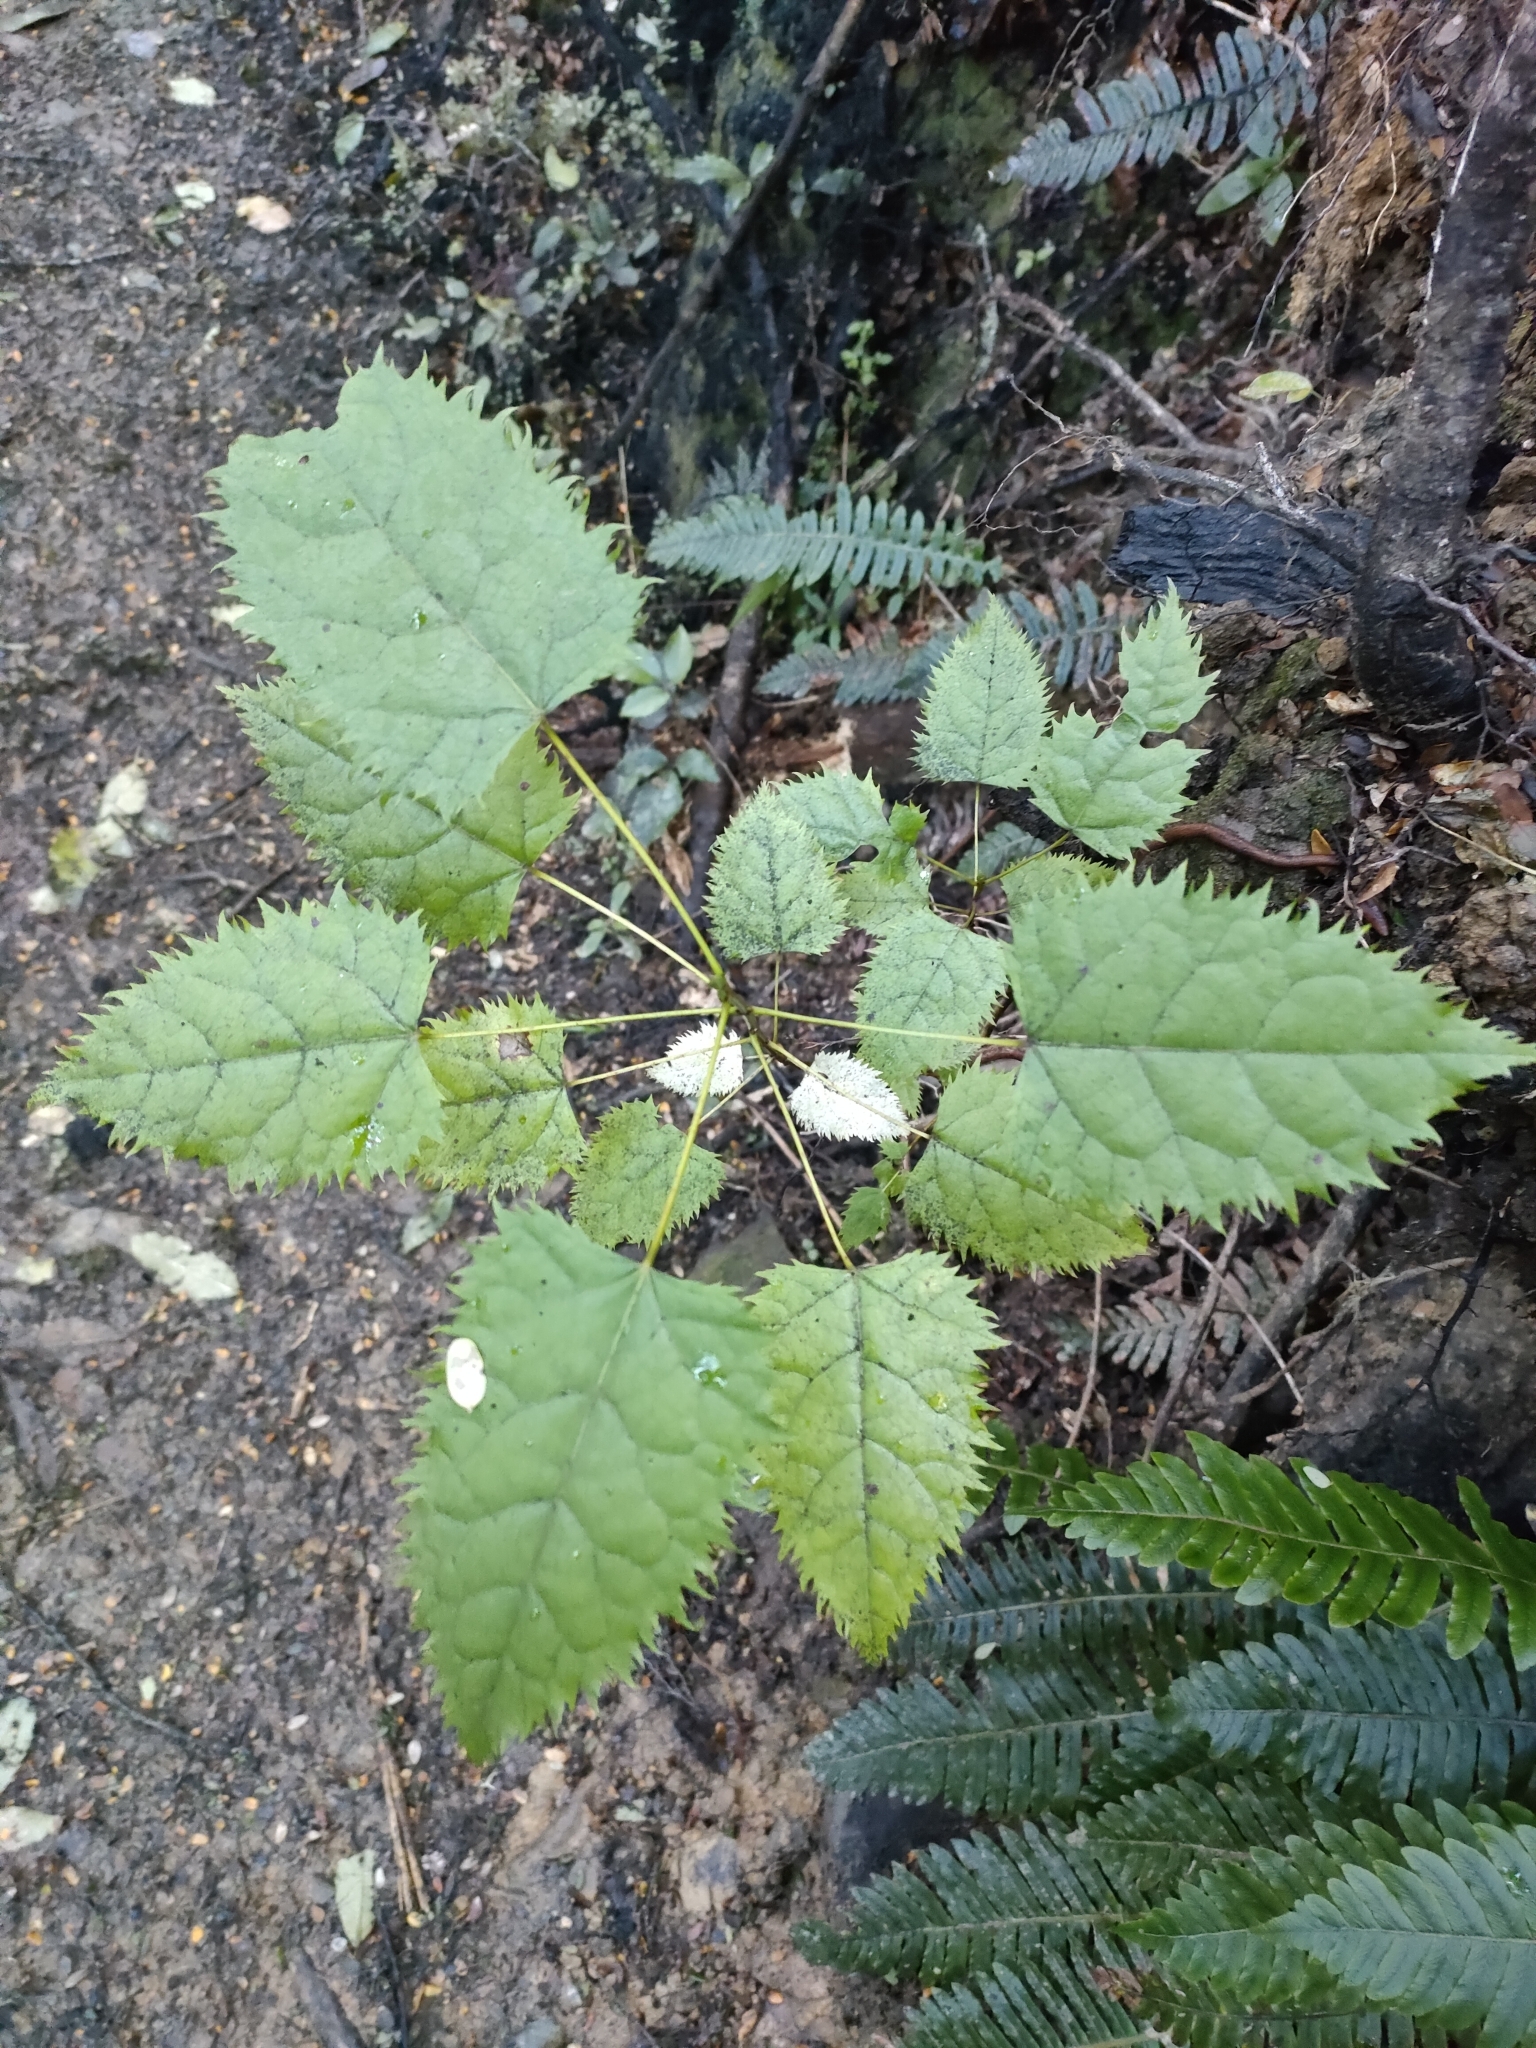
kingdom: Plantae
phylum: Tracheophyta
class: Magnoliopsida
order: Oxalidales
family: Elaeocarpaceae
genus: Aristotelia
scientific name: Aristotelia serrata
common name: New zealand wineberry
